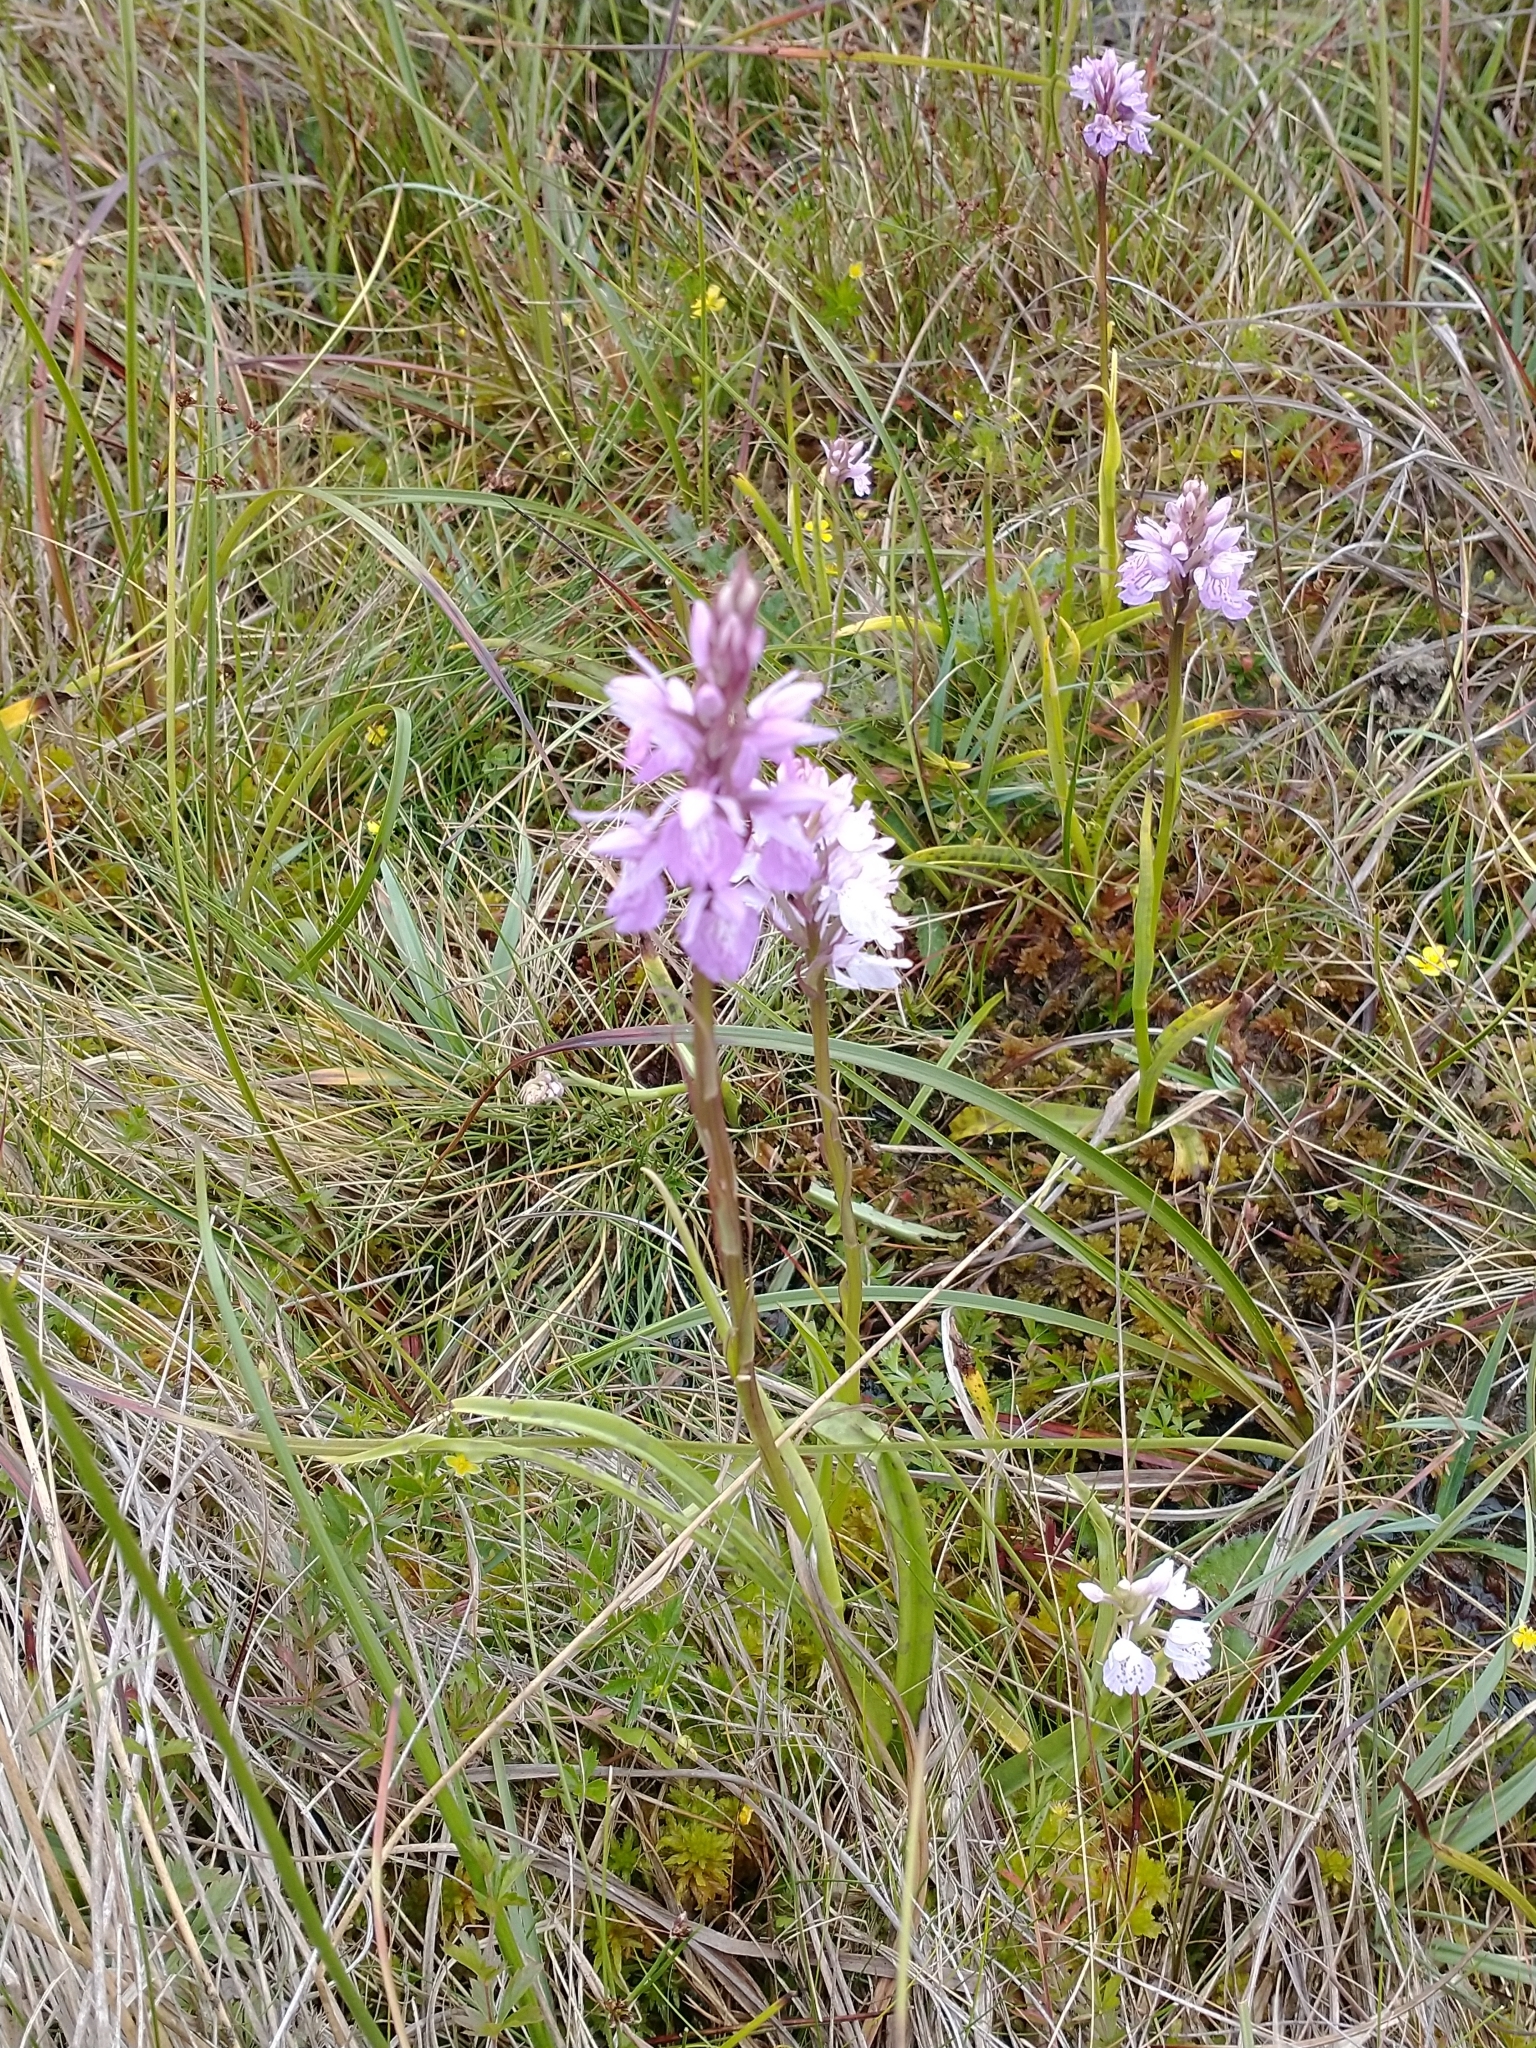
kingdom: Plantae
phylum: Tracheophyta
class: Liliopsida
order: Asparagales
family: Orchidaceae
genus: Dactylorhiza
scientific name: Dactylorhiza maculata
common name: Heath spotted-orchid
